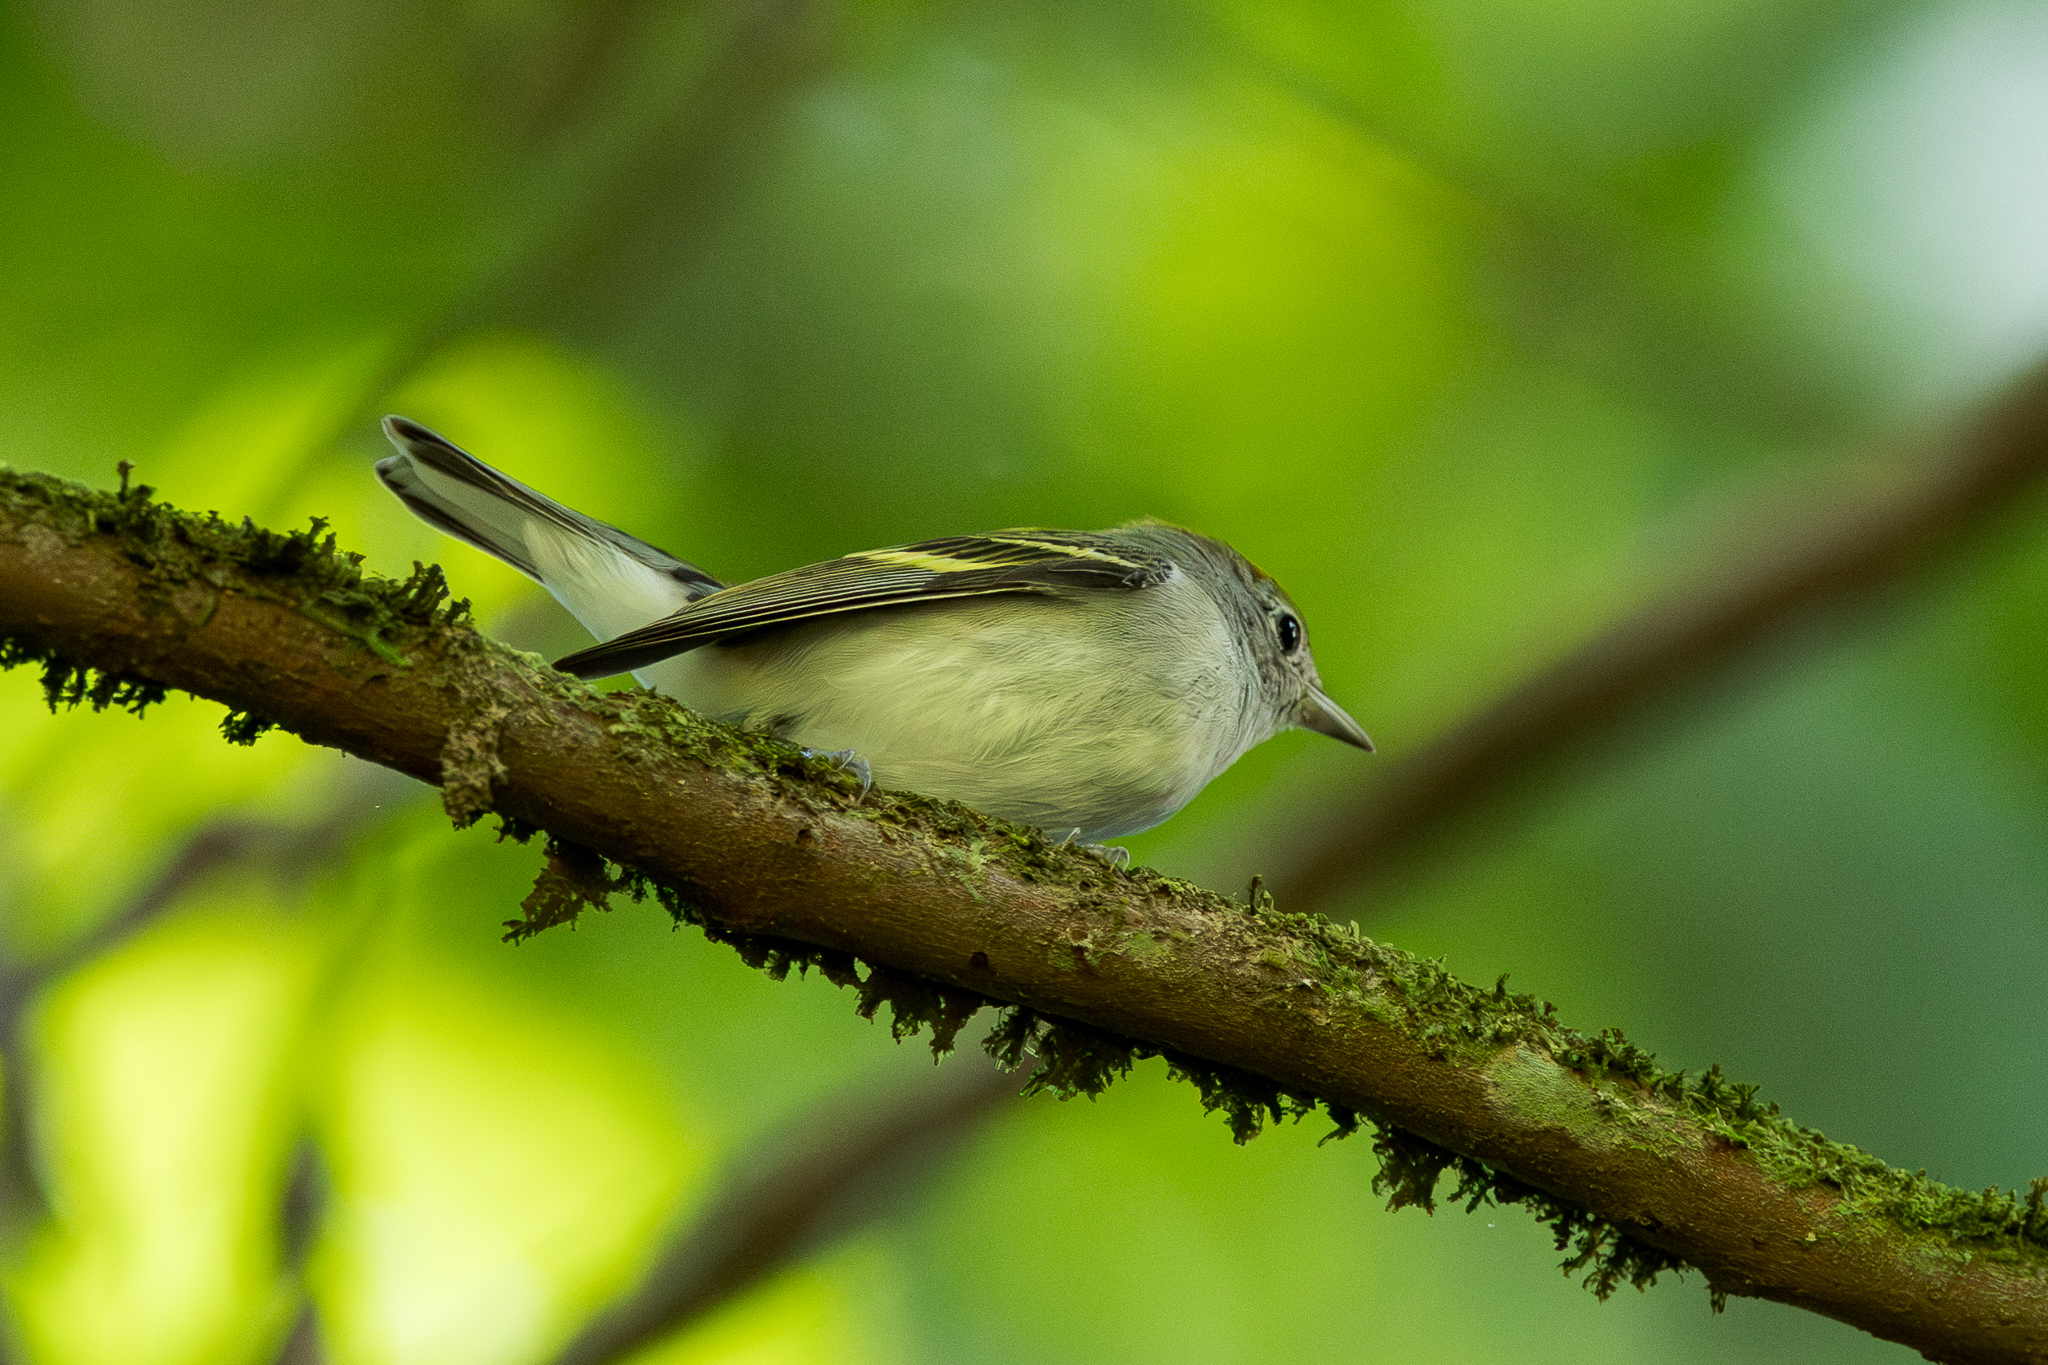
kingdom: Animalia
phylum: Chordata
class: Aves
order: Passeriformes
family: Parulidae
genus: Setophaga
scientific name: Setophaga pensylvanica
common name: Chestnut-sided warbler
